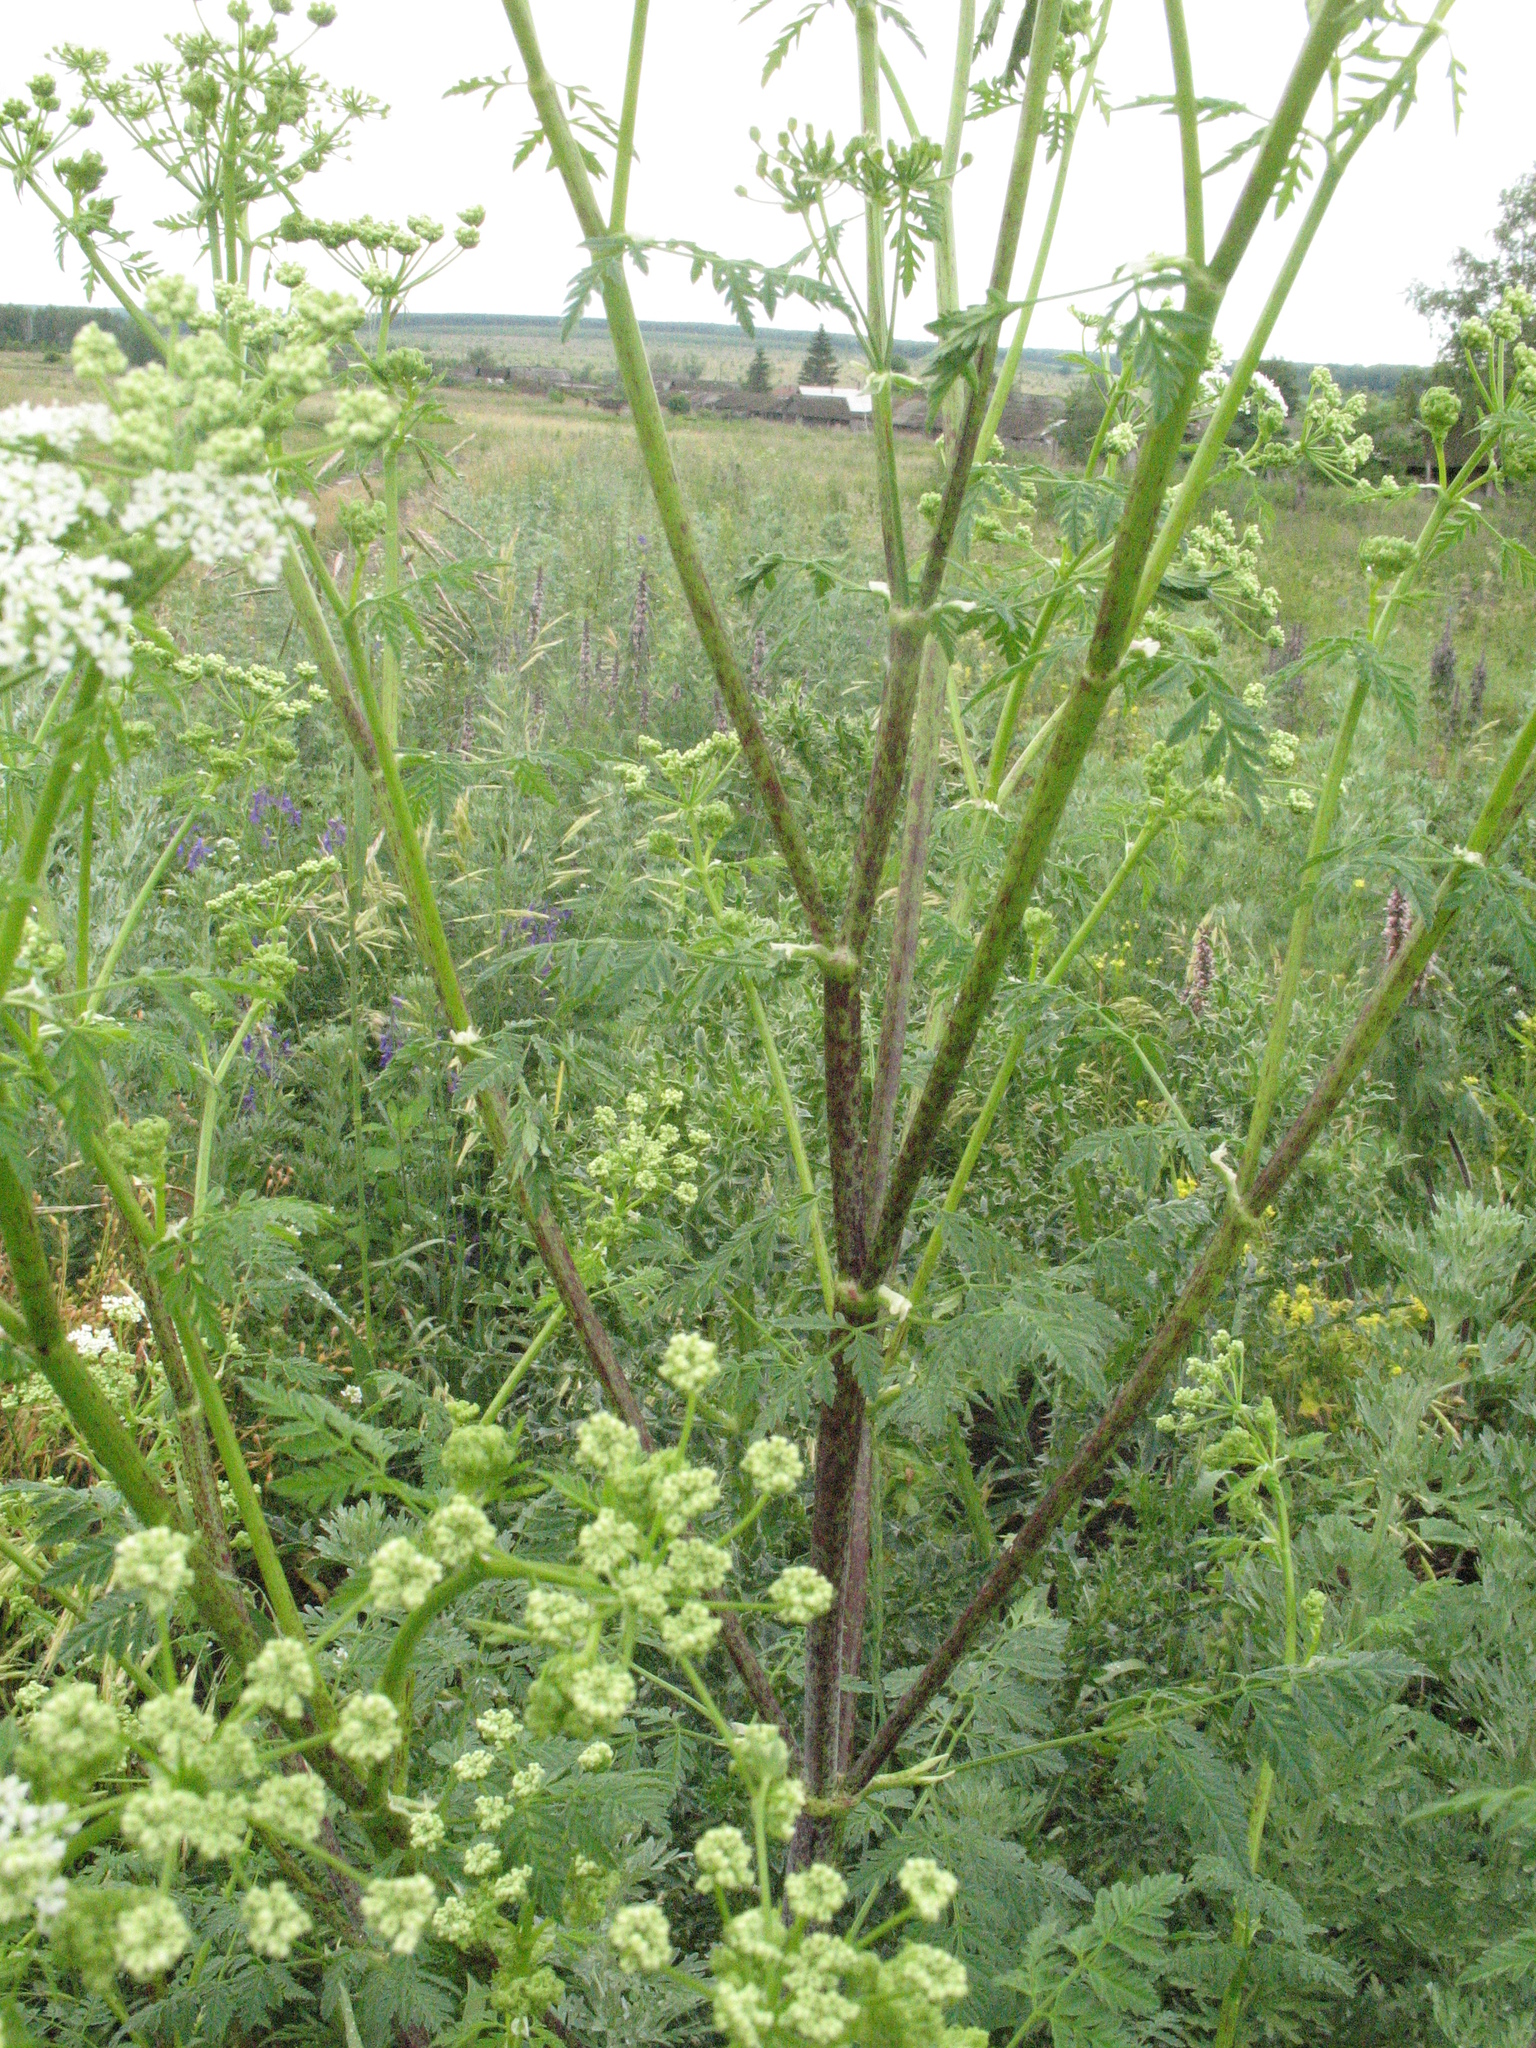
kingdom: Plantae
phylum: Tracheophyta
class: Magnoliopsida
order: Apiales
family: Apiaceae
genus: Conium
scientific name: Conium maculatum
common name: Hemlock
